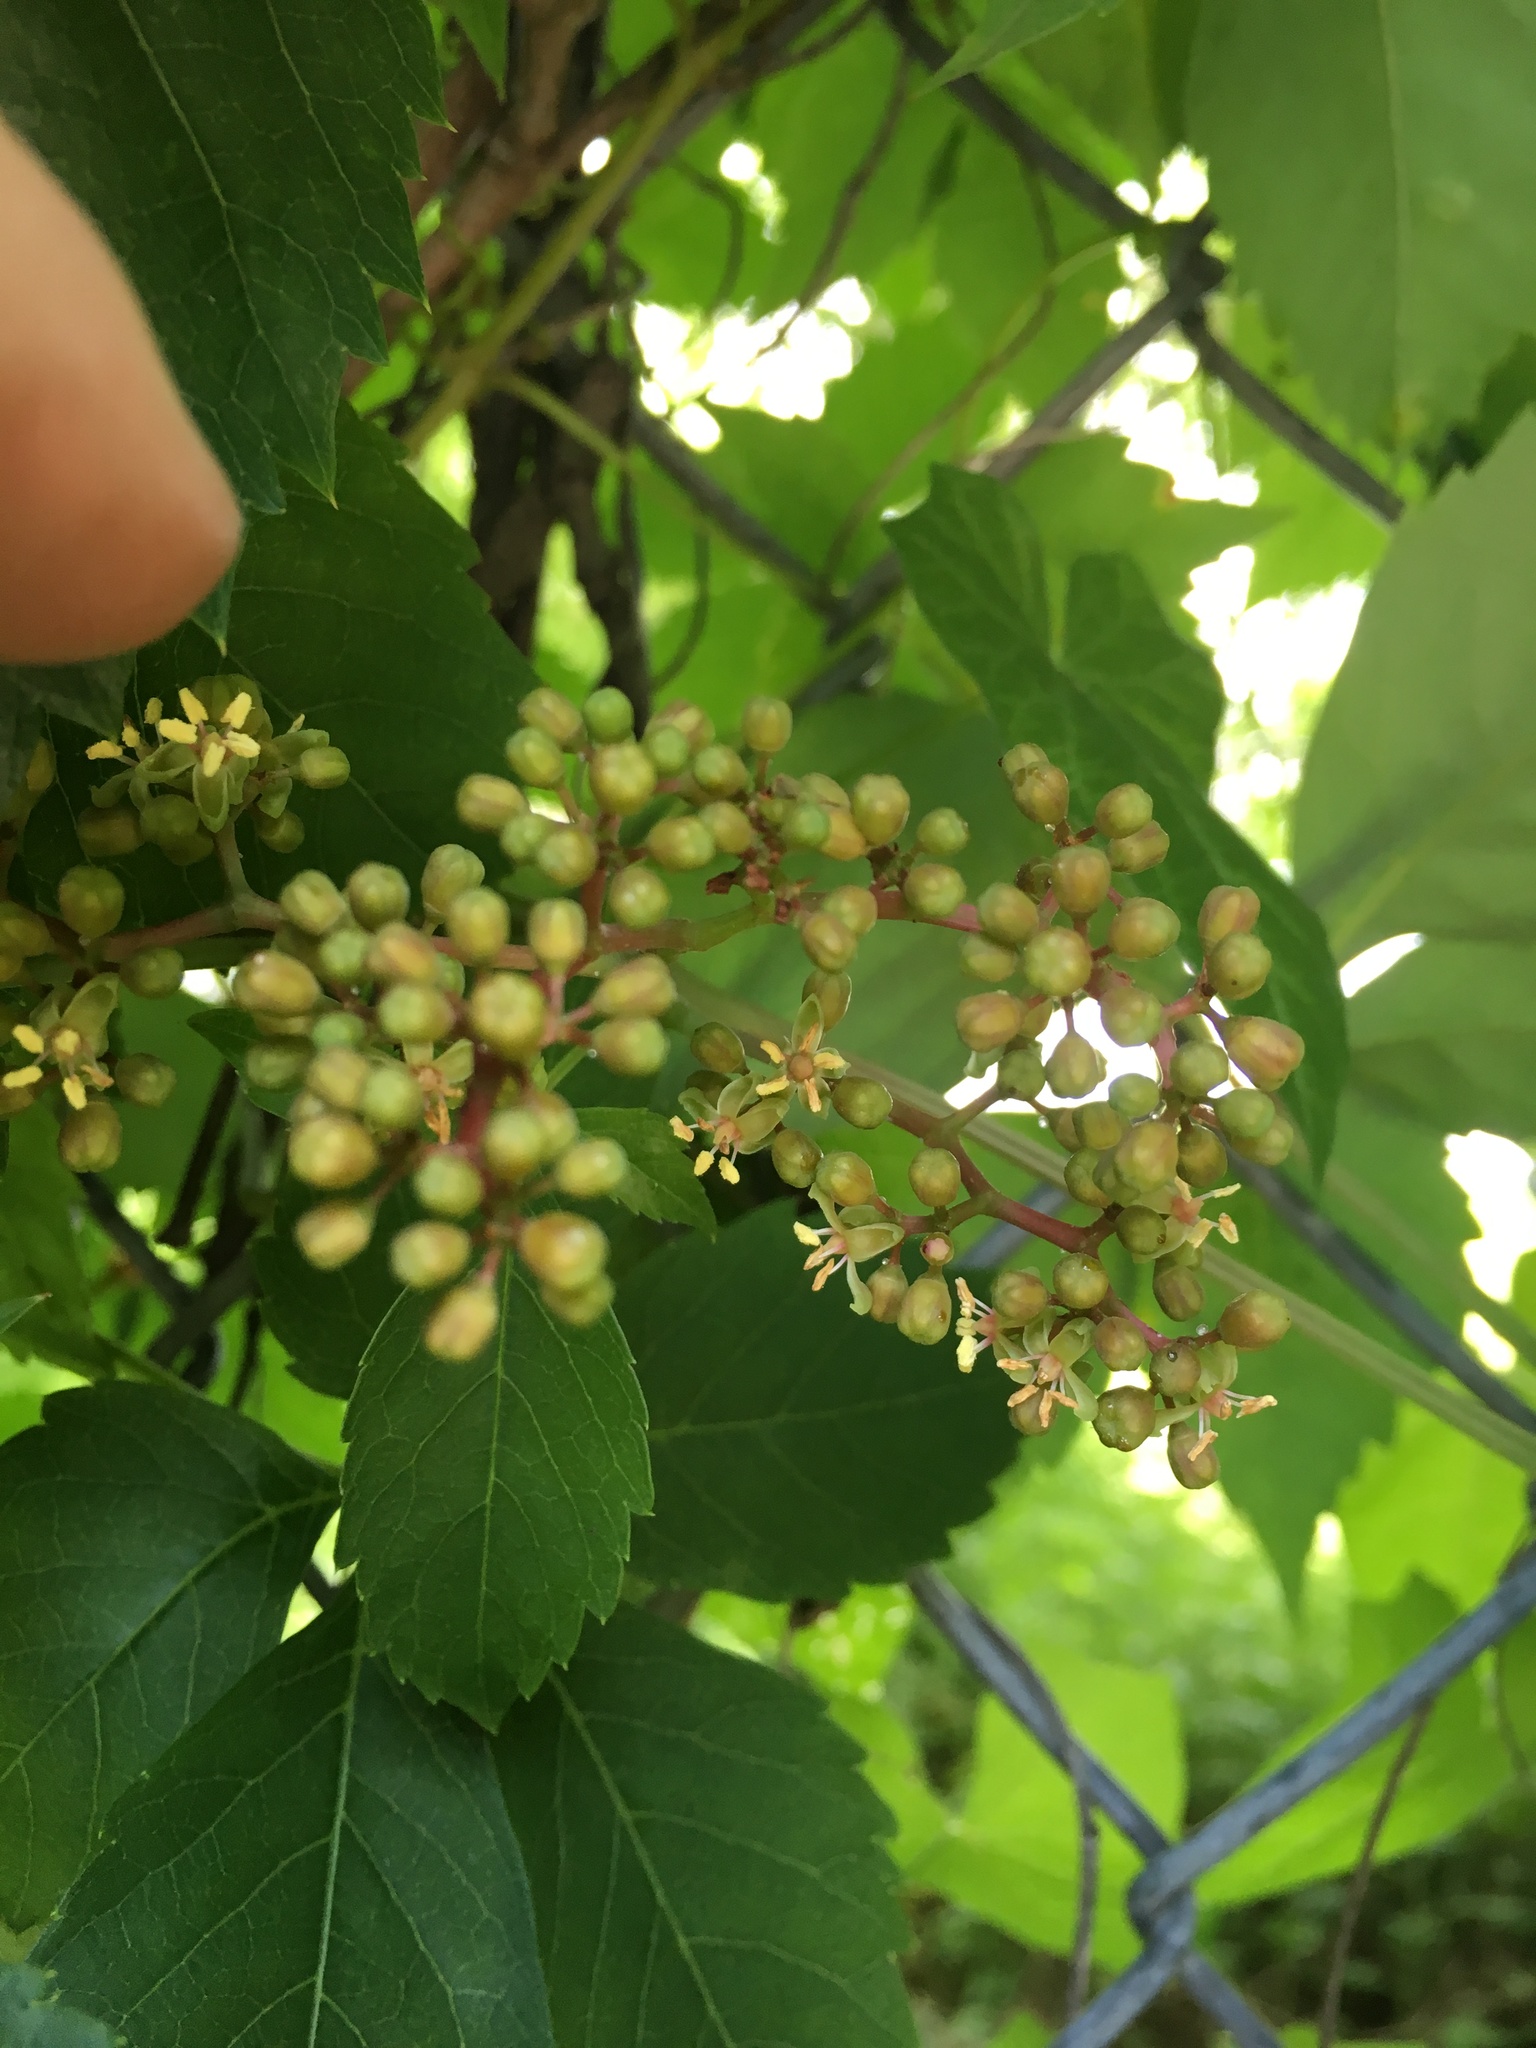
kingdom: Plantae
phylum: Tracheophyta
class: Magnoliopsida
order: Vitales
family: Vitaceae
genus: Parthenocissus
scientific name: Parthenocissus quinquefolia
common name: Virginia-creeper
